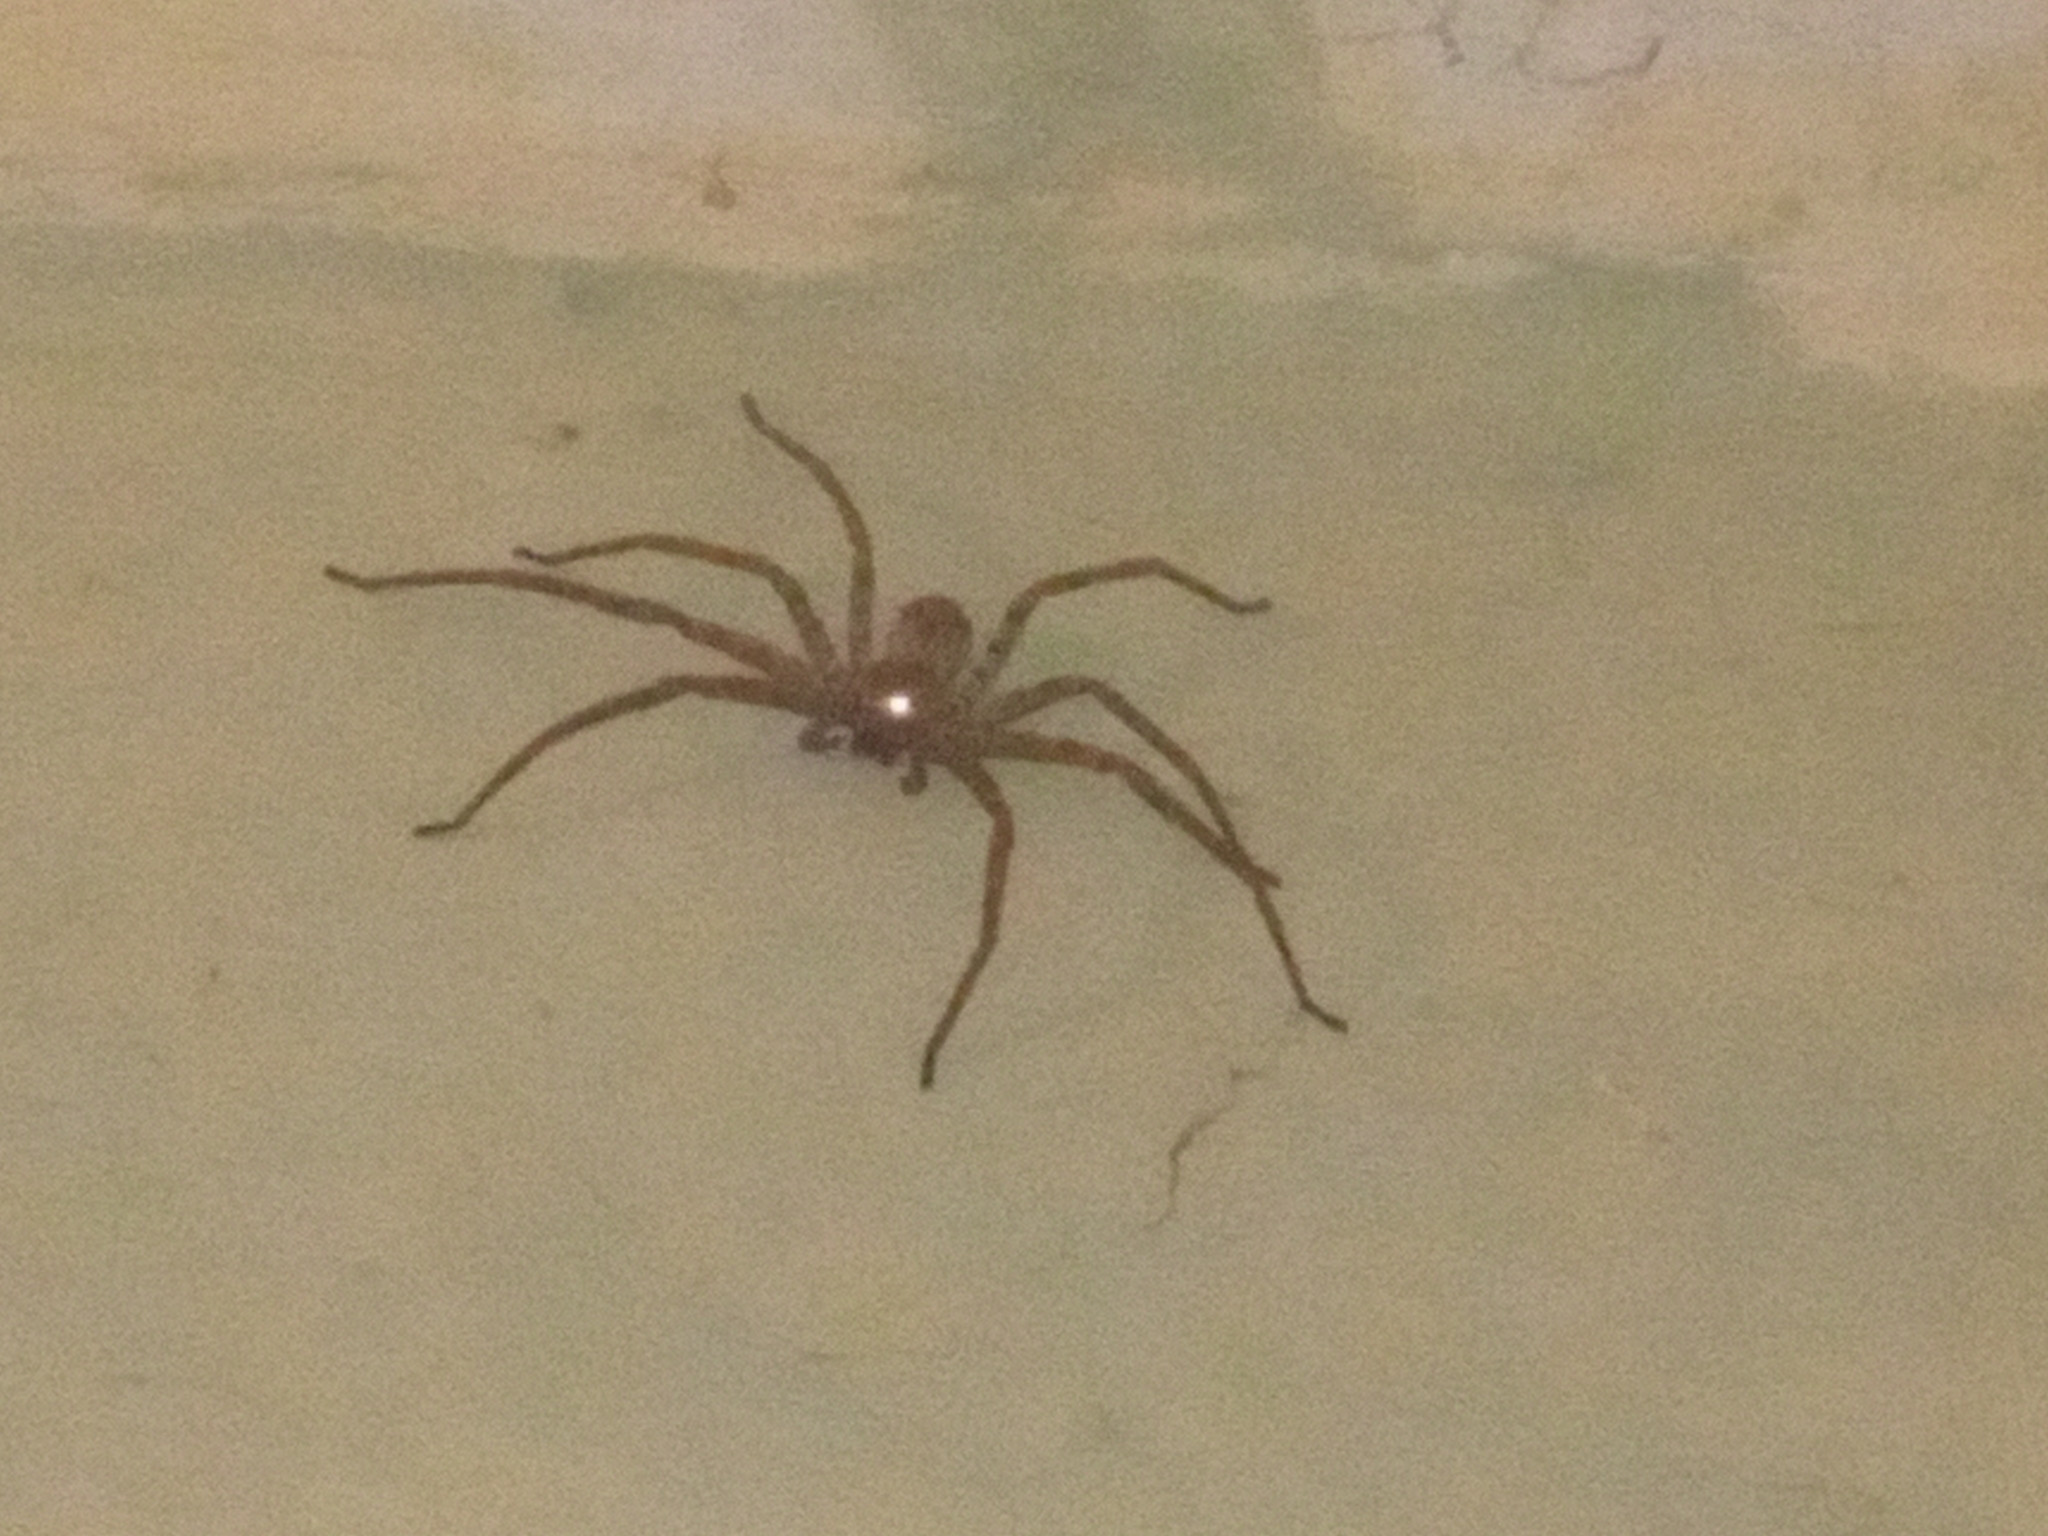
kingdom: Animalia
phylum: Arthropoda
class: Arachnida
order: Araneae
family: Sparassidae
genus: Heteropoda
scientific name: Heteropoda venatoria
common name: Huntsman spider
